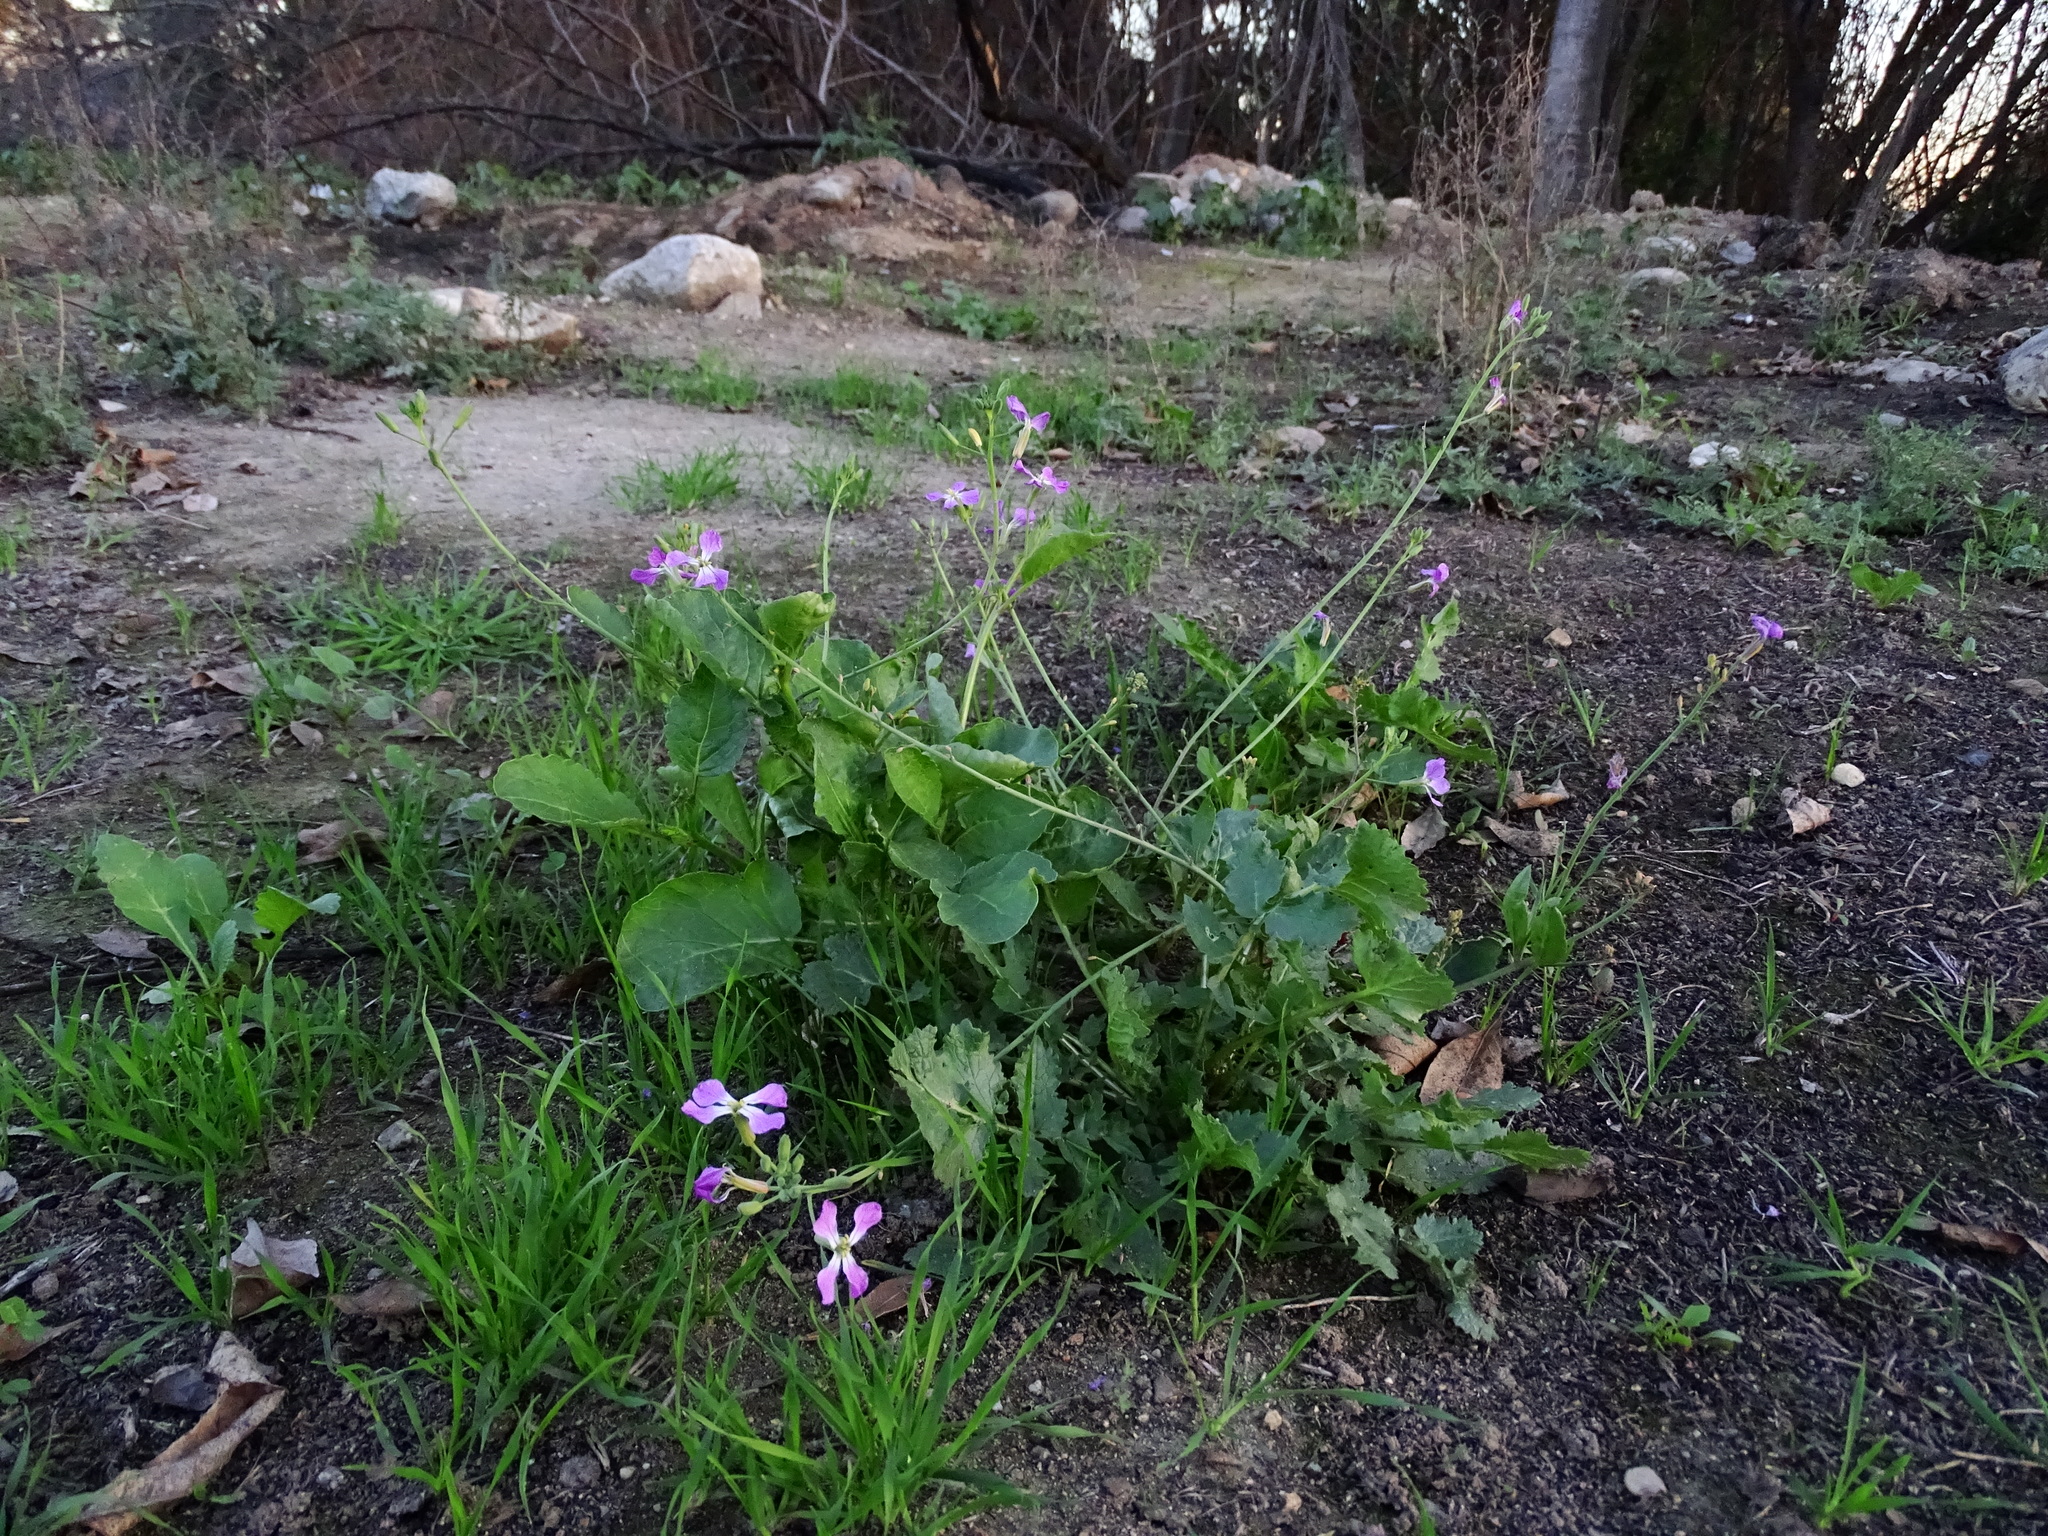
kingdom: Plantae
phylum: Tracheophyta
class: Magnoliopsida
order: Brassicales
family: Brassicaceae
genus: Raphanus
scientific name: Raphanus sativus
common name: Cultivated radish
